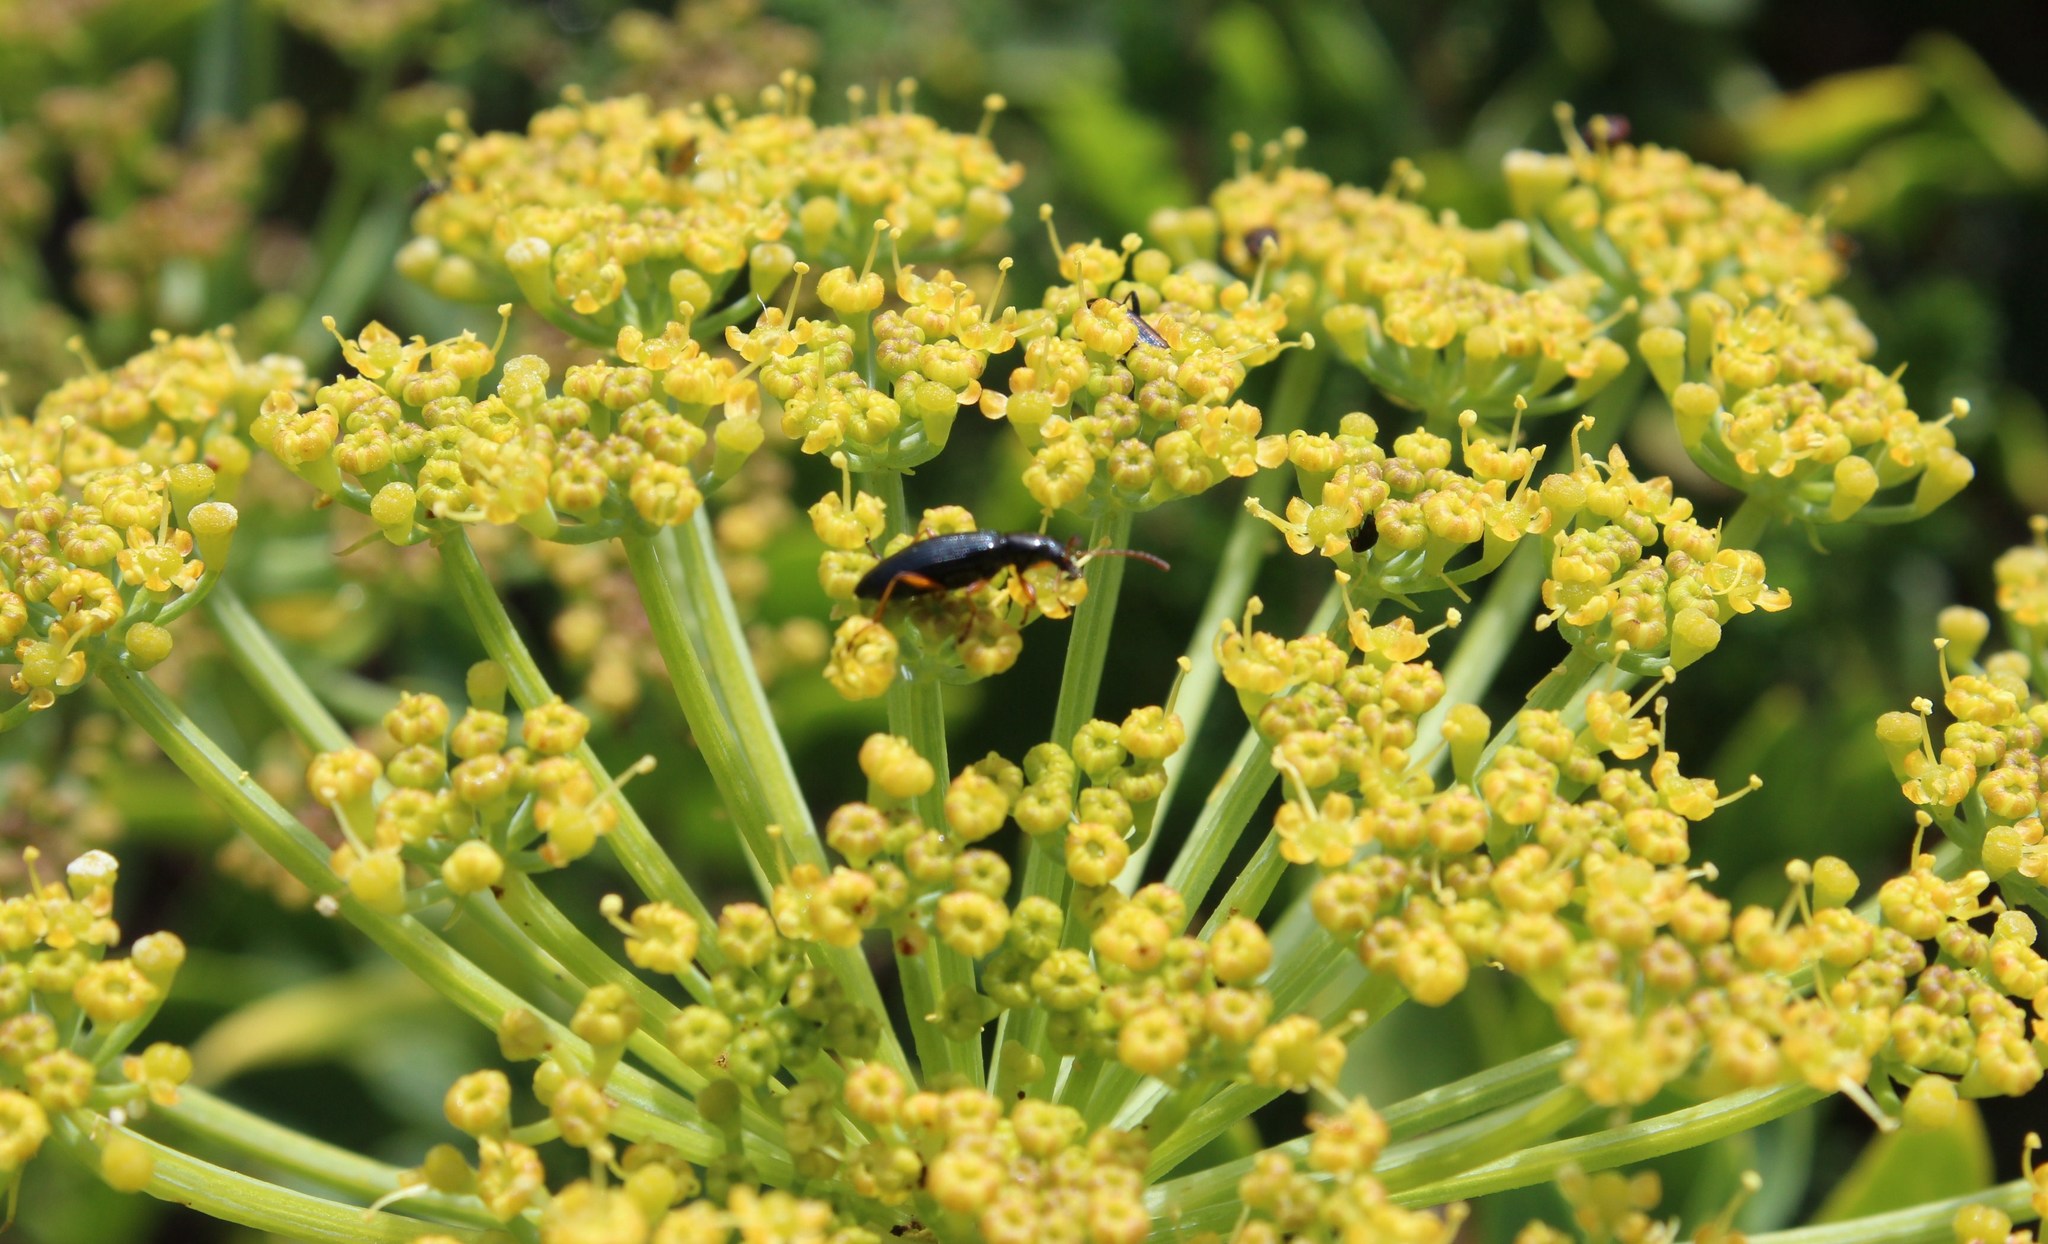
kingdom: Plantae
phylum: Tracheophyta
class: Magnoliopsida
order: Apiales
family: Apiaceae
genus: Notobubon
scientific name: Notobubon laevigatum
